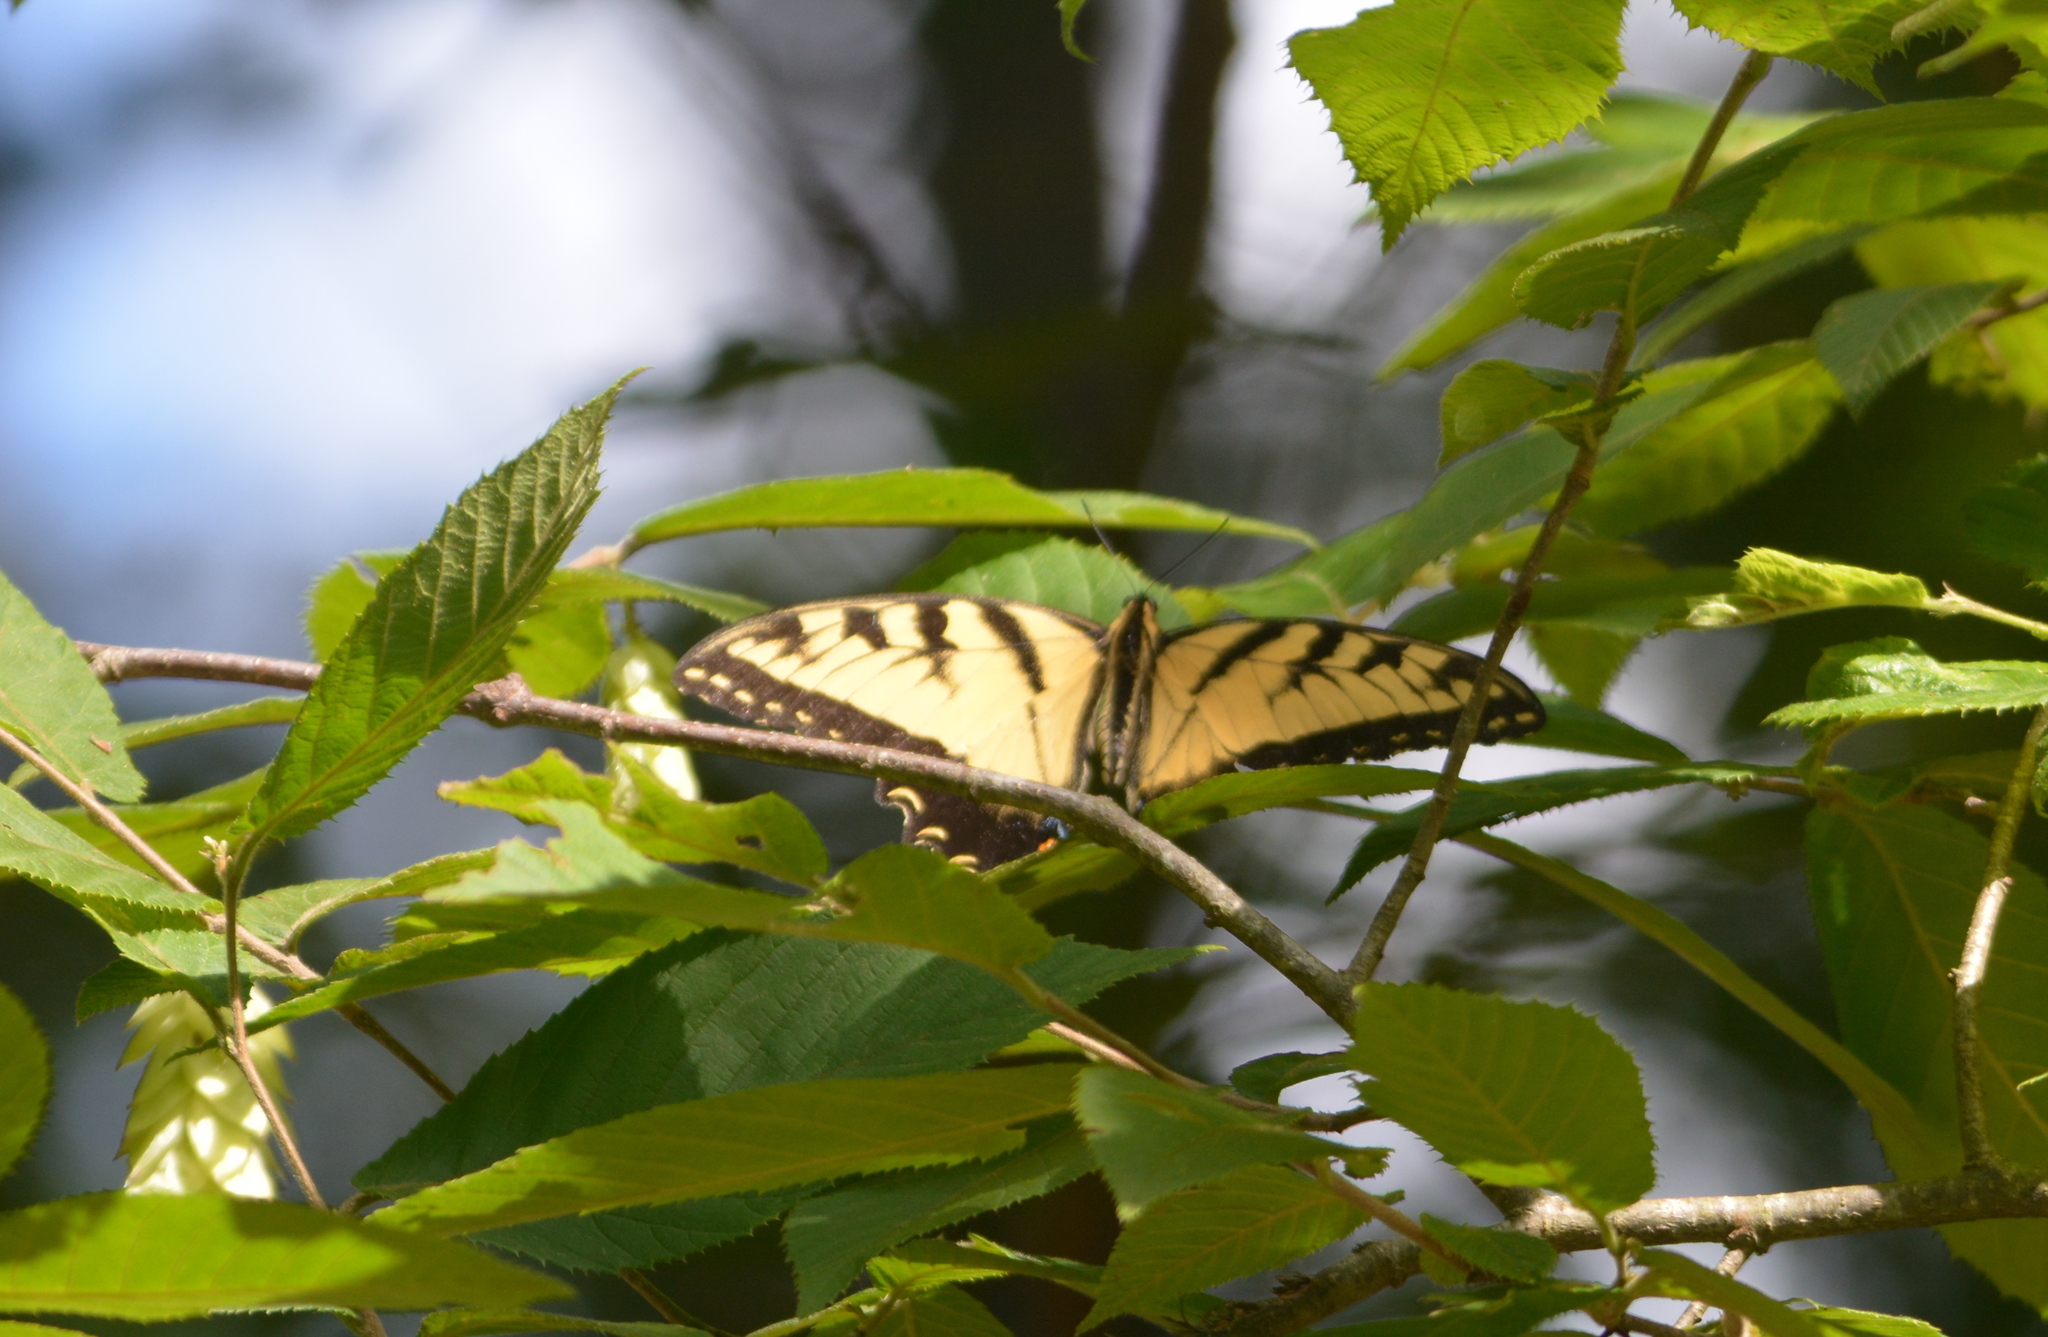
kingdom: Animalia
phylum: Arthropoda
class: Insecta
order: Lepidoptera
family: Papilionidae
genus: Papilio
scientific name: Papilio glaucus
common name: Tiger swallowtail
